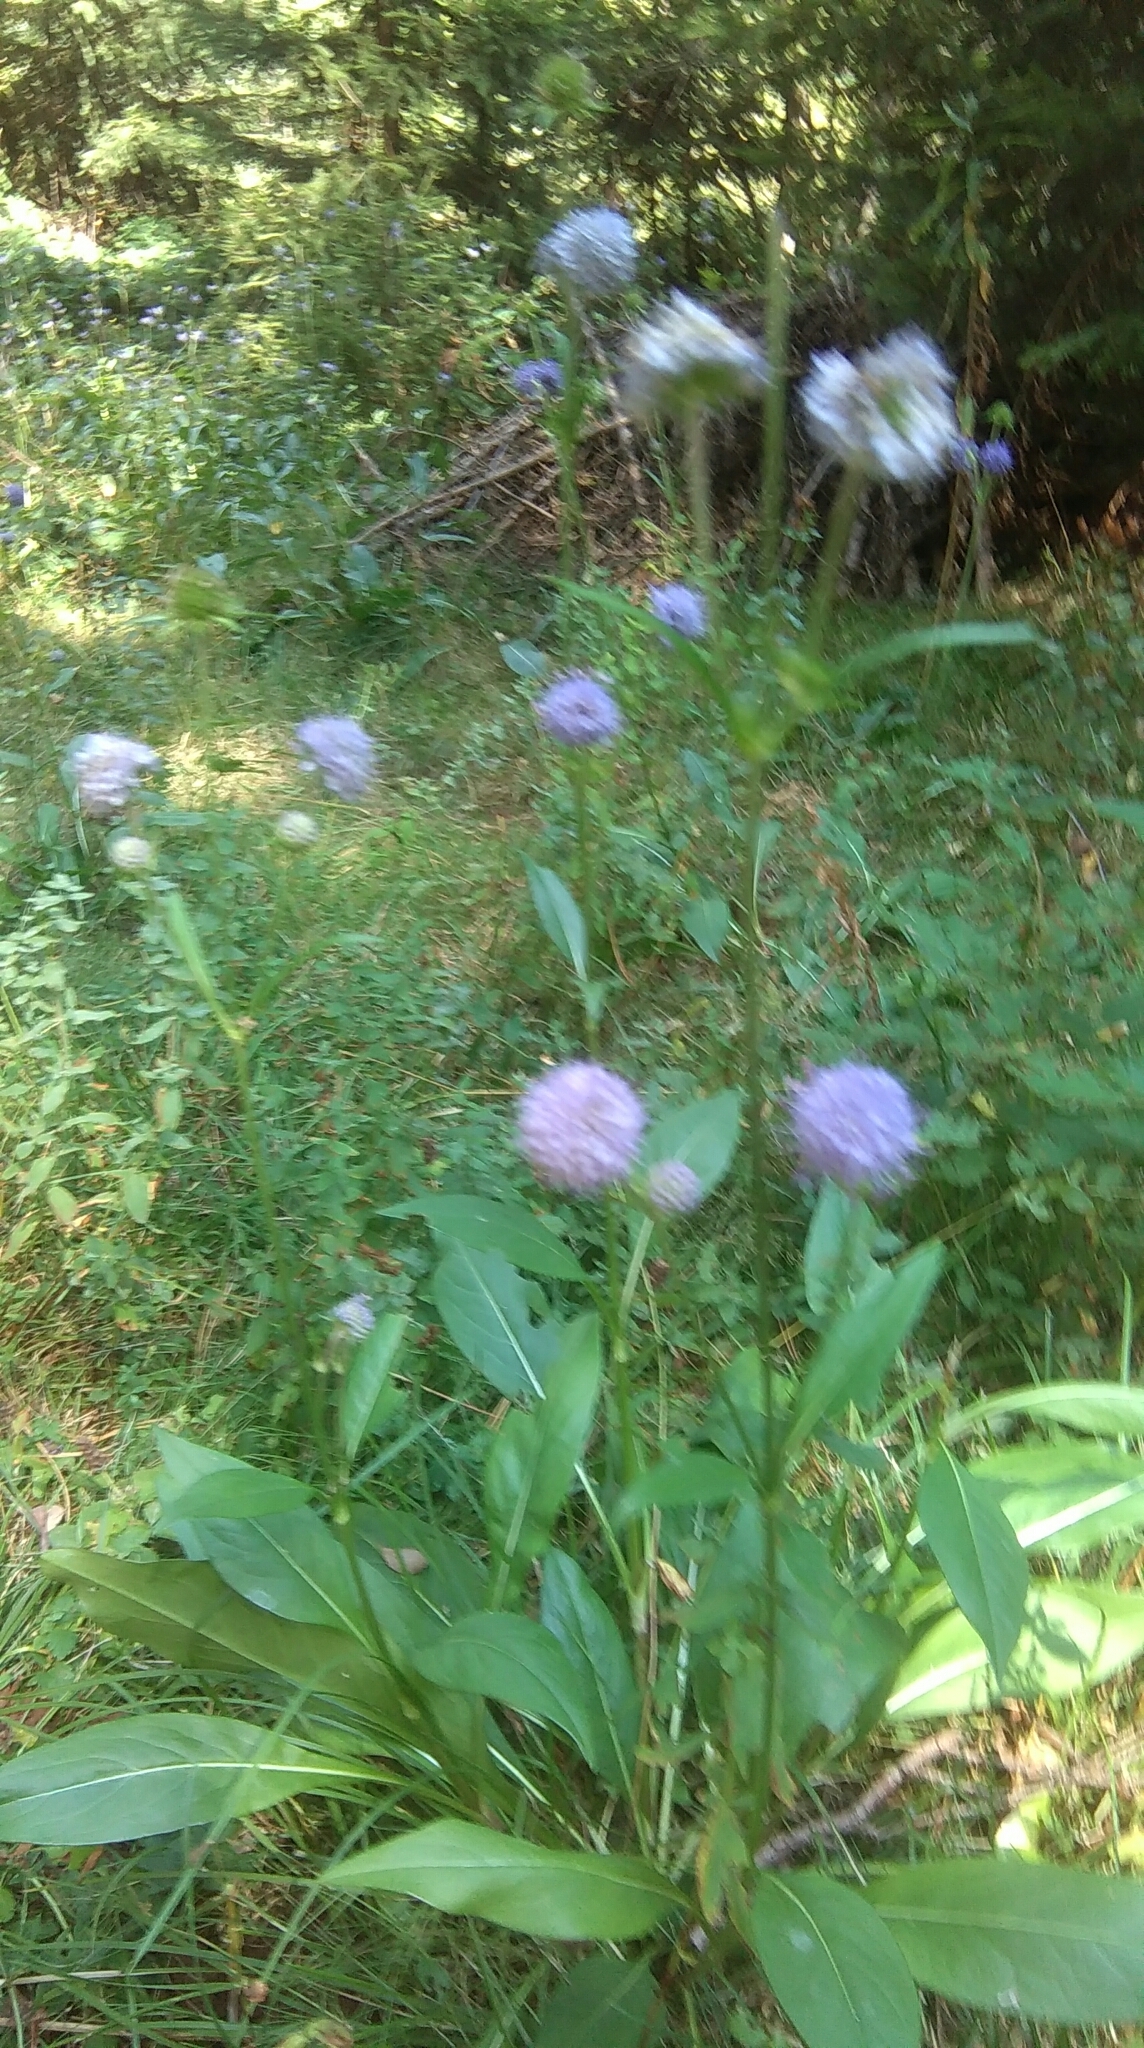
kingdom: Plantae
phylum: Tracheophyta
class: Magnoliopsida
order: Dipsacales
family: Caprifoliaceae
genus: Succisa
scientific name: Succisa pratensis
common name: Devil's-bit
